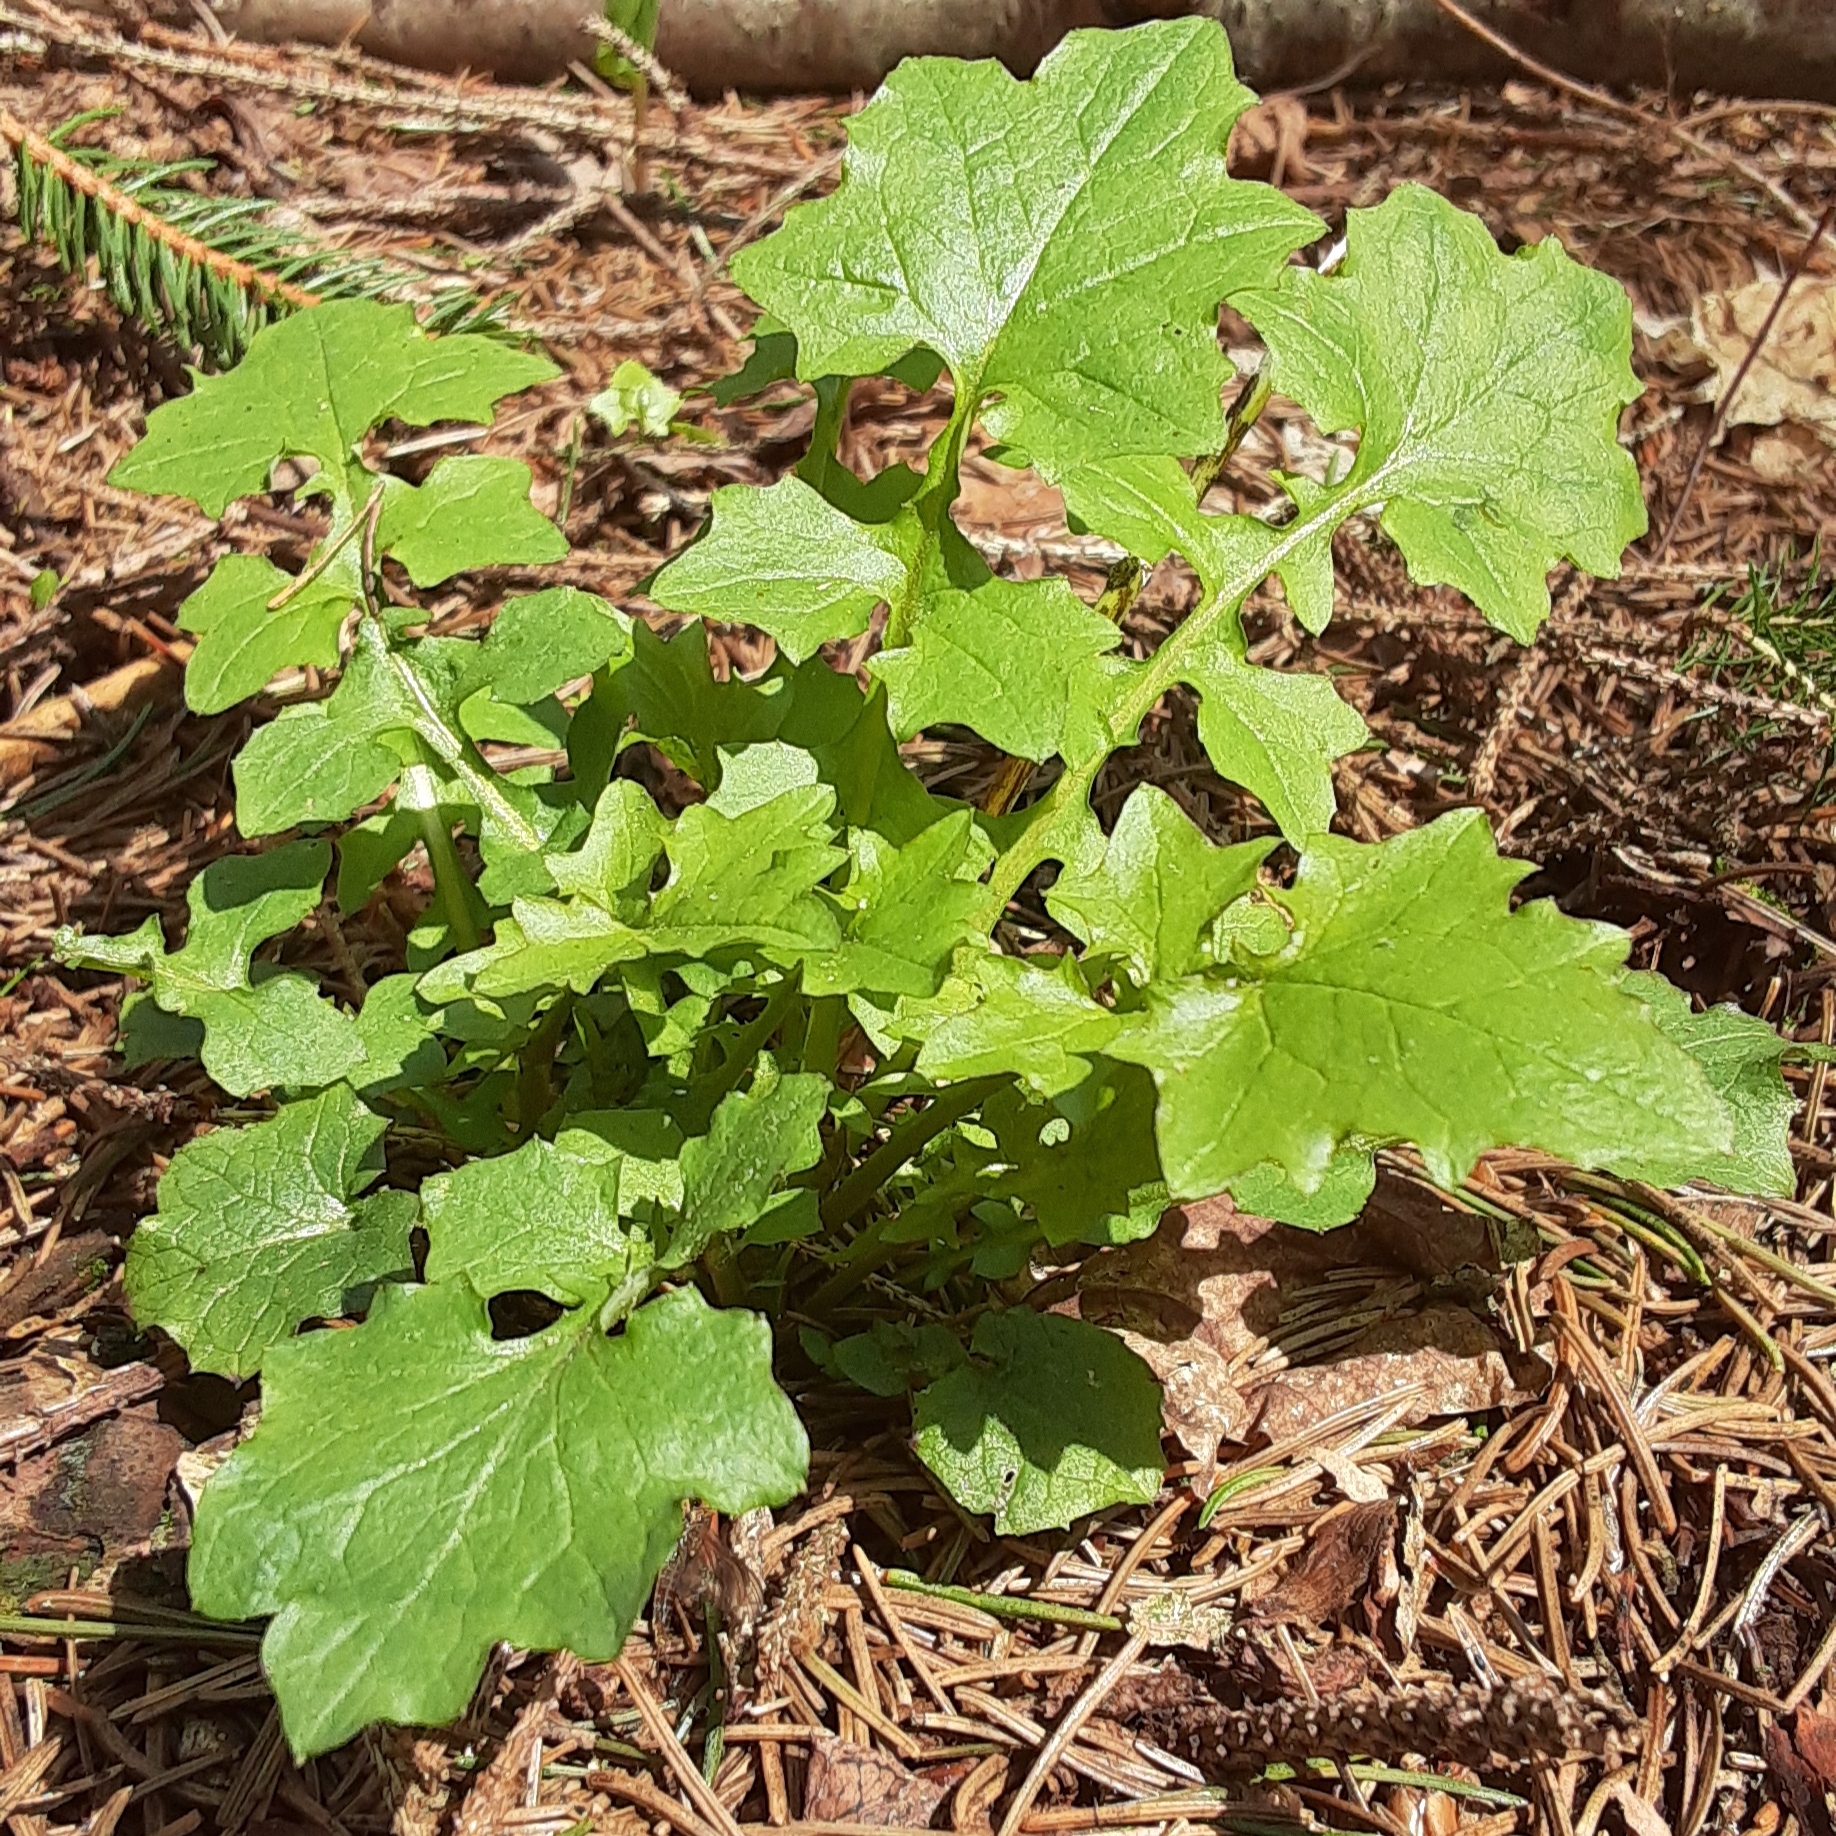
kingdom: Plantae
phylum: Tracheophyta
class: Magnoliopsida
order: Asterales
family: Asteraceae
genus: Mycelis
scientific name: Mycelis muralis
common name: Wall lettuce
